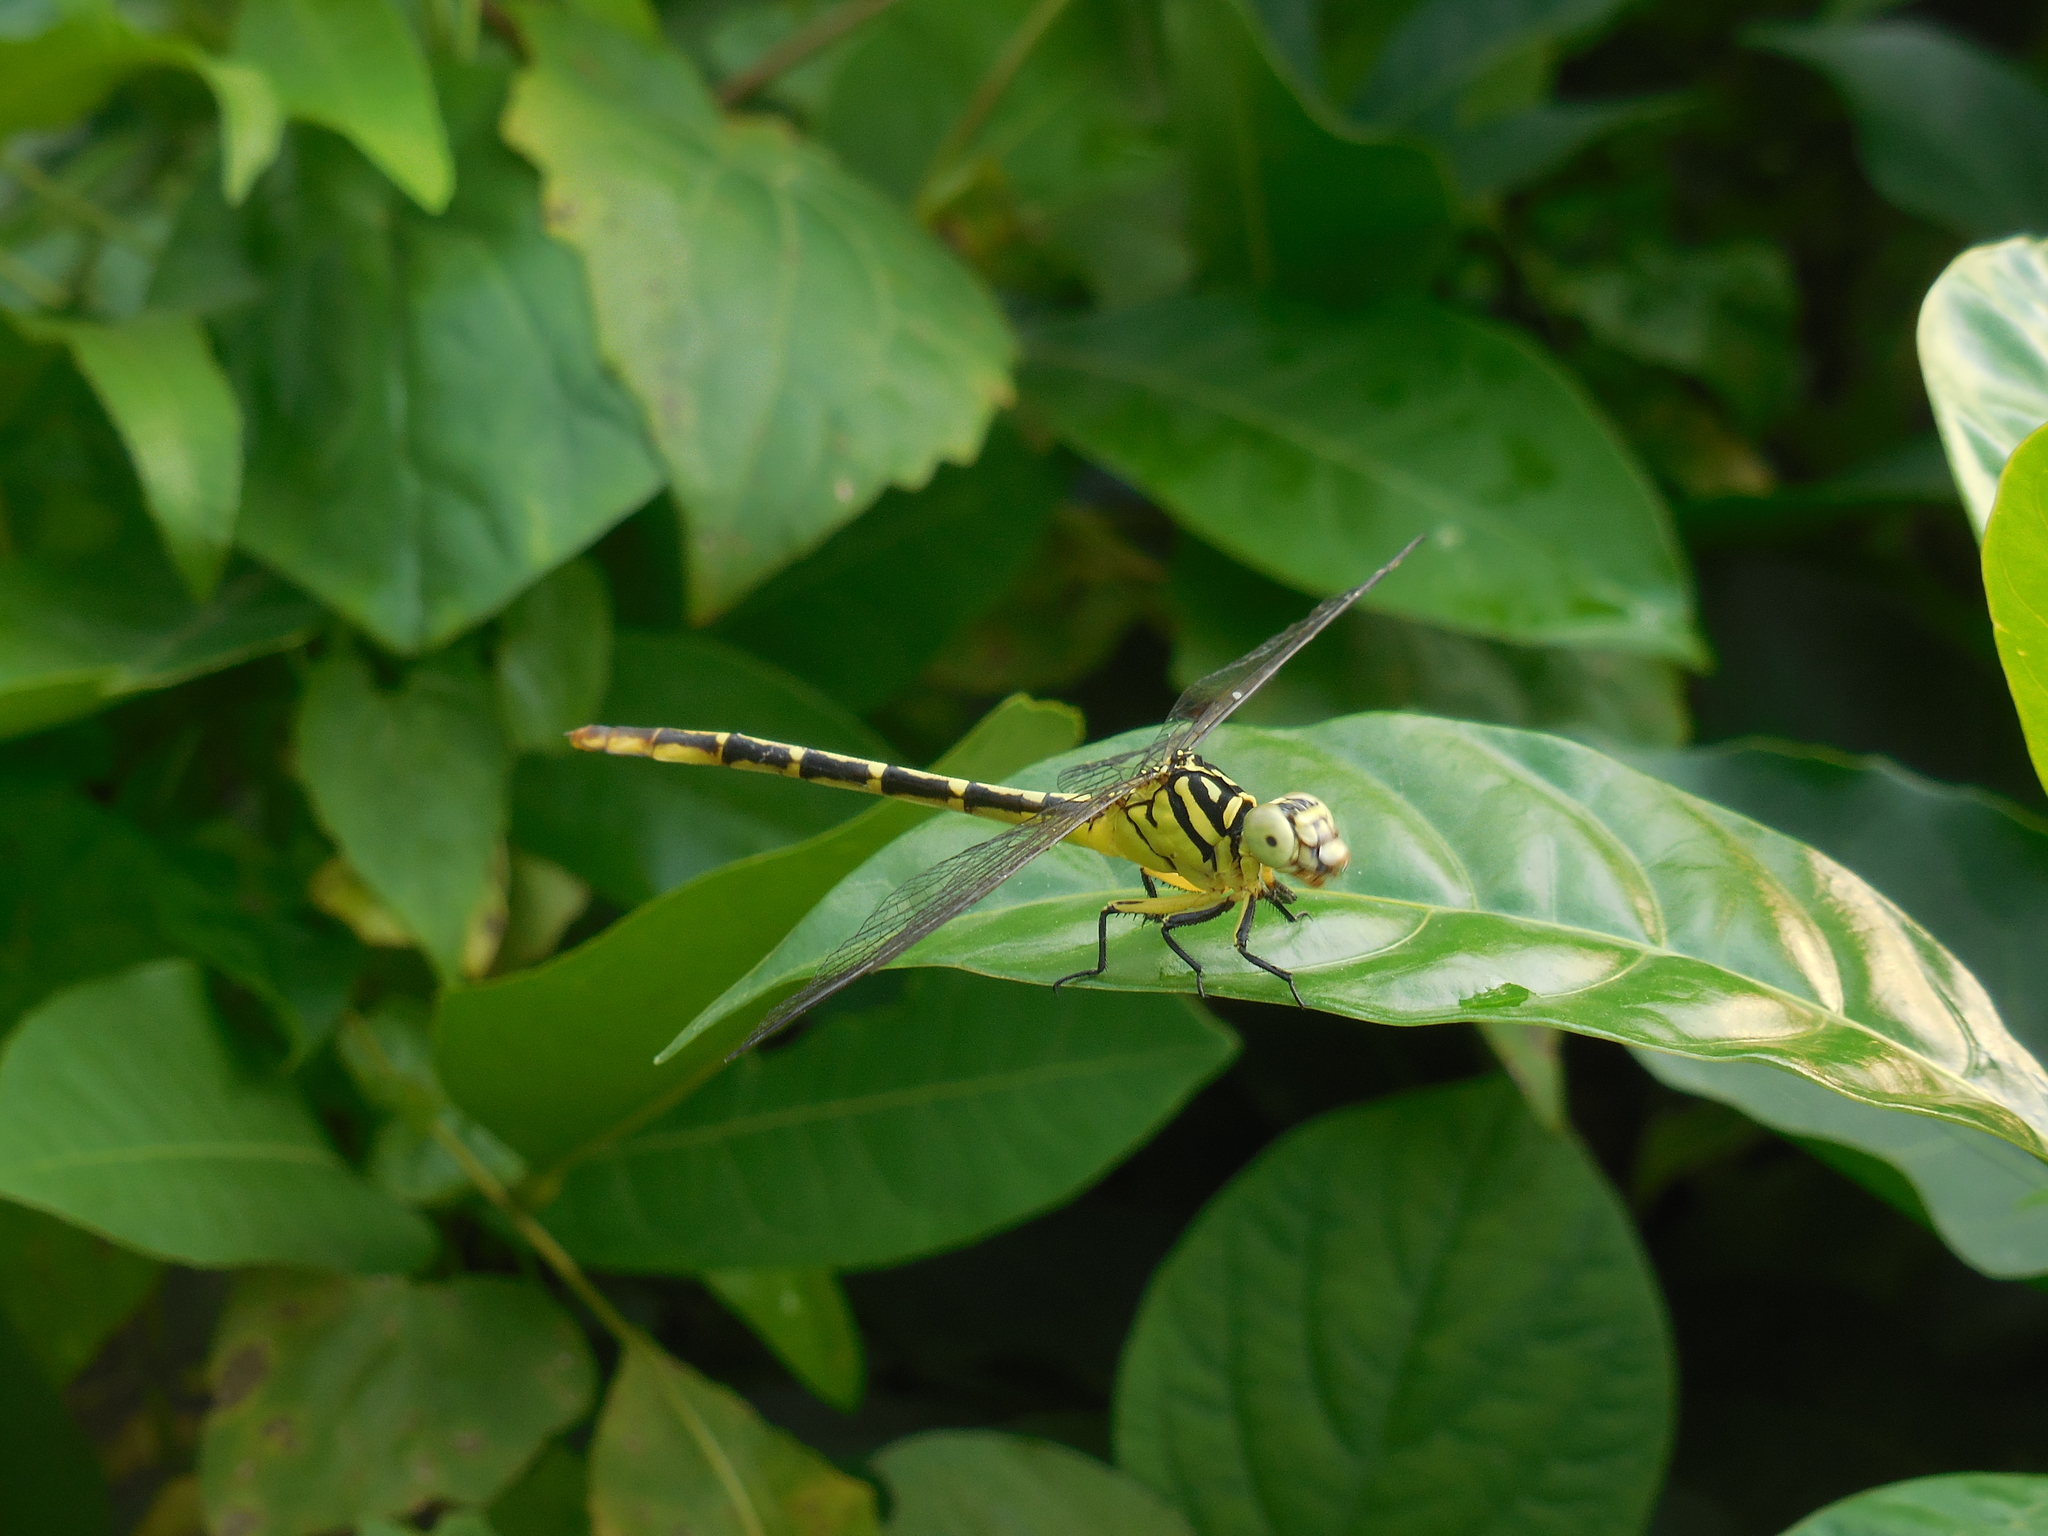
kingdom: Animalia
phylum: Arthropoda
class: Insecta
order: Odonata
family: Gomphidae
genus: Platygomphus
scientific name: Platygomphus dolabratus
